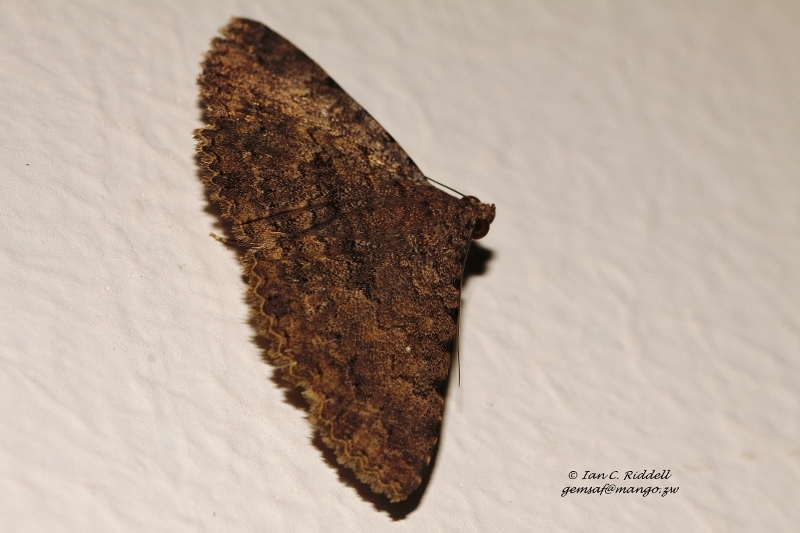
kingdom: Animalia
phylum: Arthropoda
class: Insecta
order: Lepidoptera
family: Erebidae
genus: Polydesma
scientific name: Polydesma umbricola
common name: Monkeypod moth
